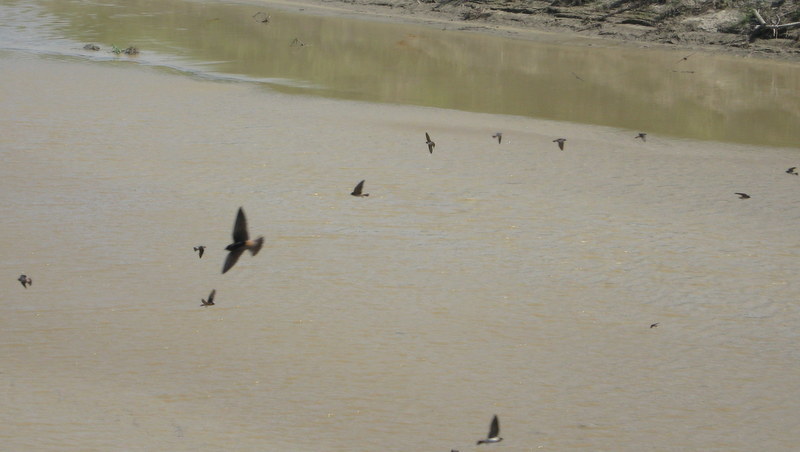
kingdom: Animalia
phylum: Chordata
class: Aves
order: Passeriformes
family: Hirundinidae
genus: Petrochelidon
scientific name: Petrochelidon pyrrhonota
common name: American cliff swallow
